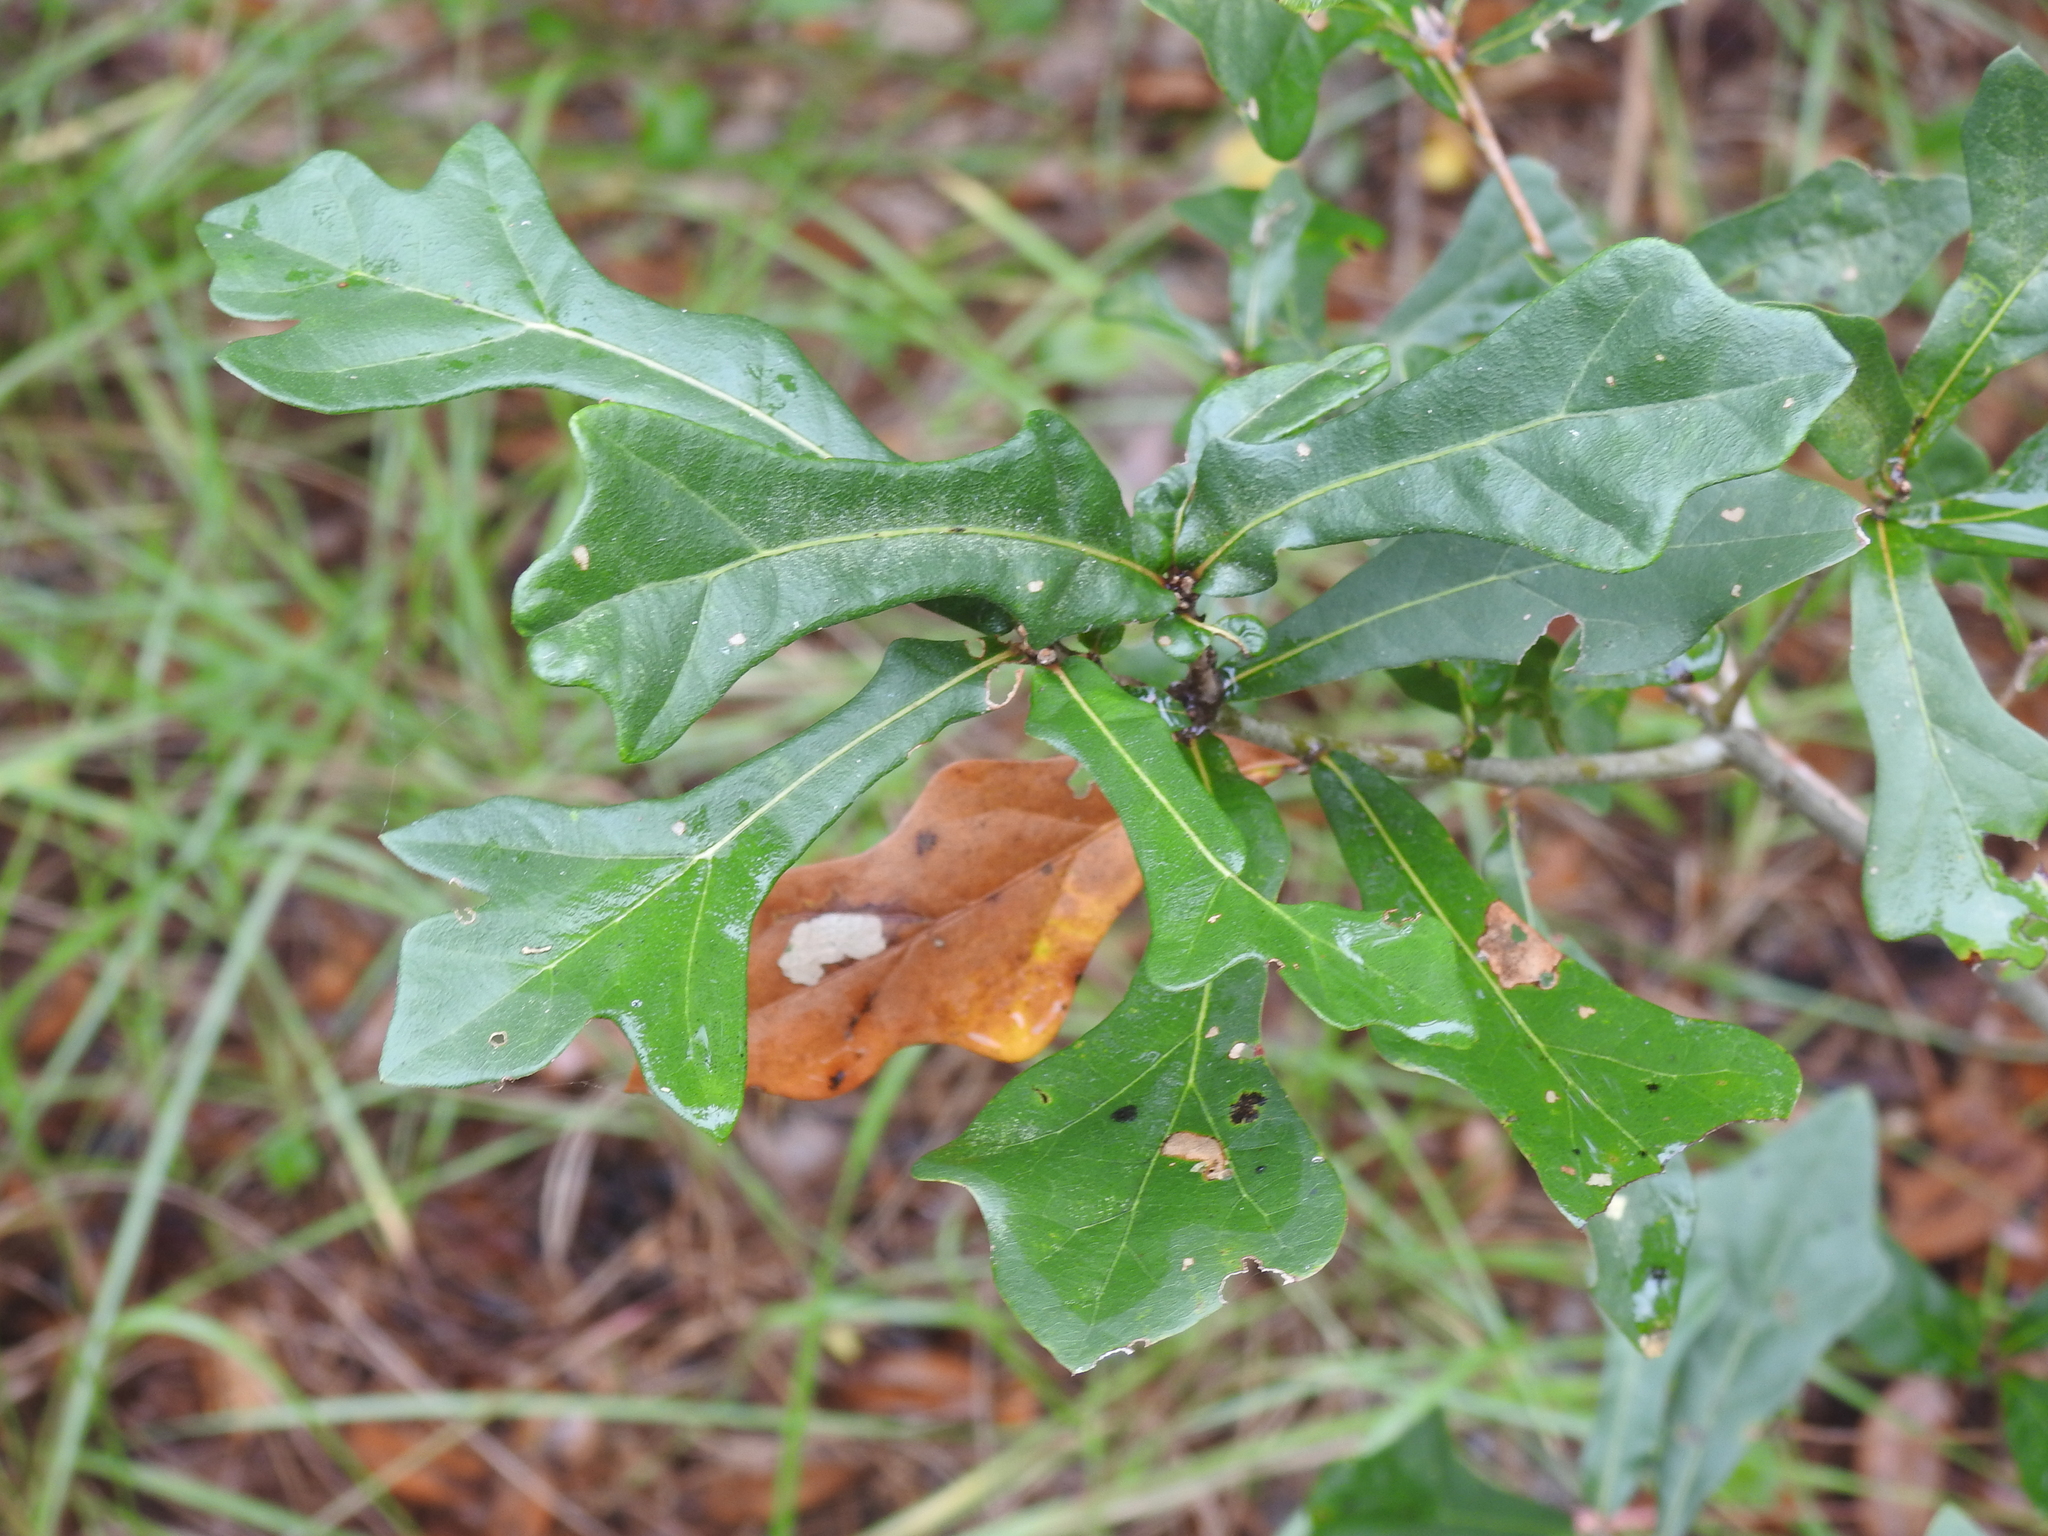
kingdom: Plantae
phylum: Tracheophyta
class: Magnoliopsida
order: Fagales
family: Fagaceae
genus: Quercus
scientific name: Quercus nigra
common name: Water oak
